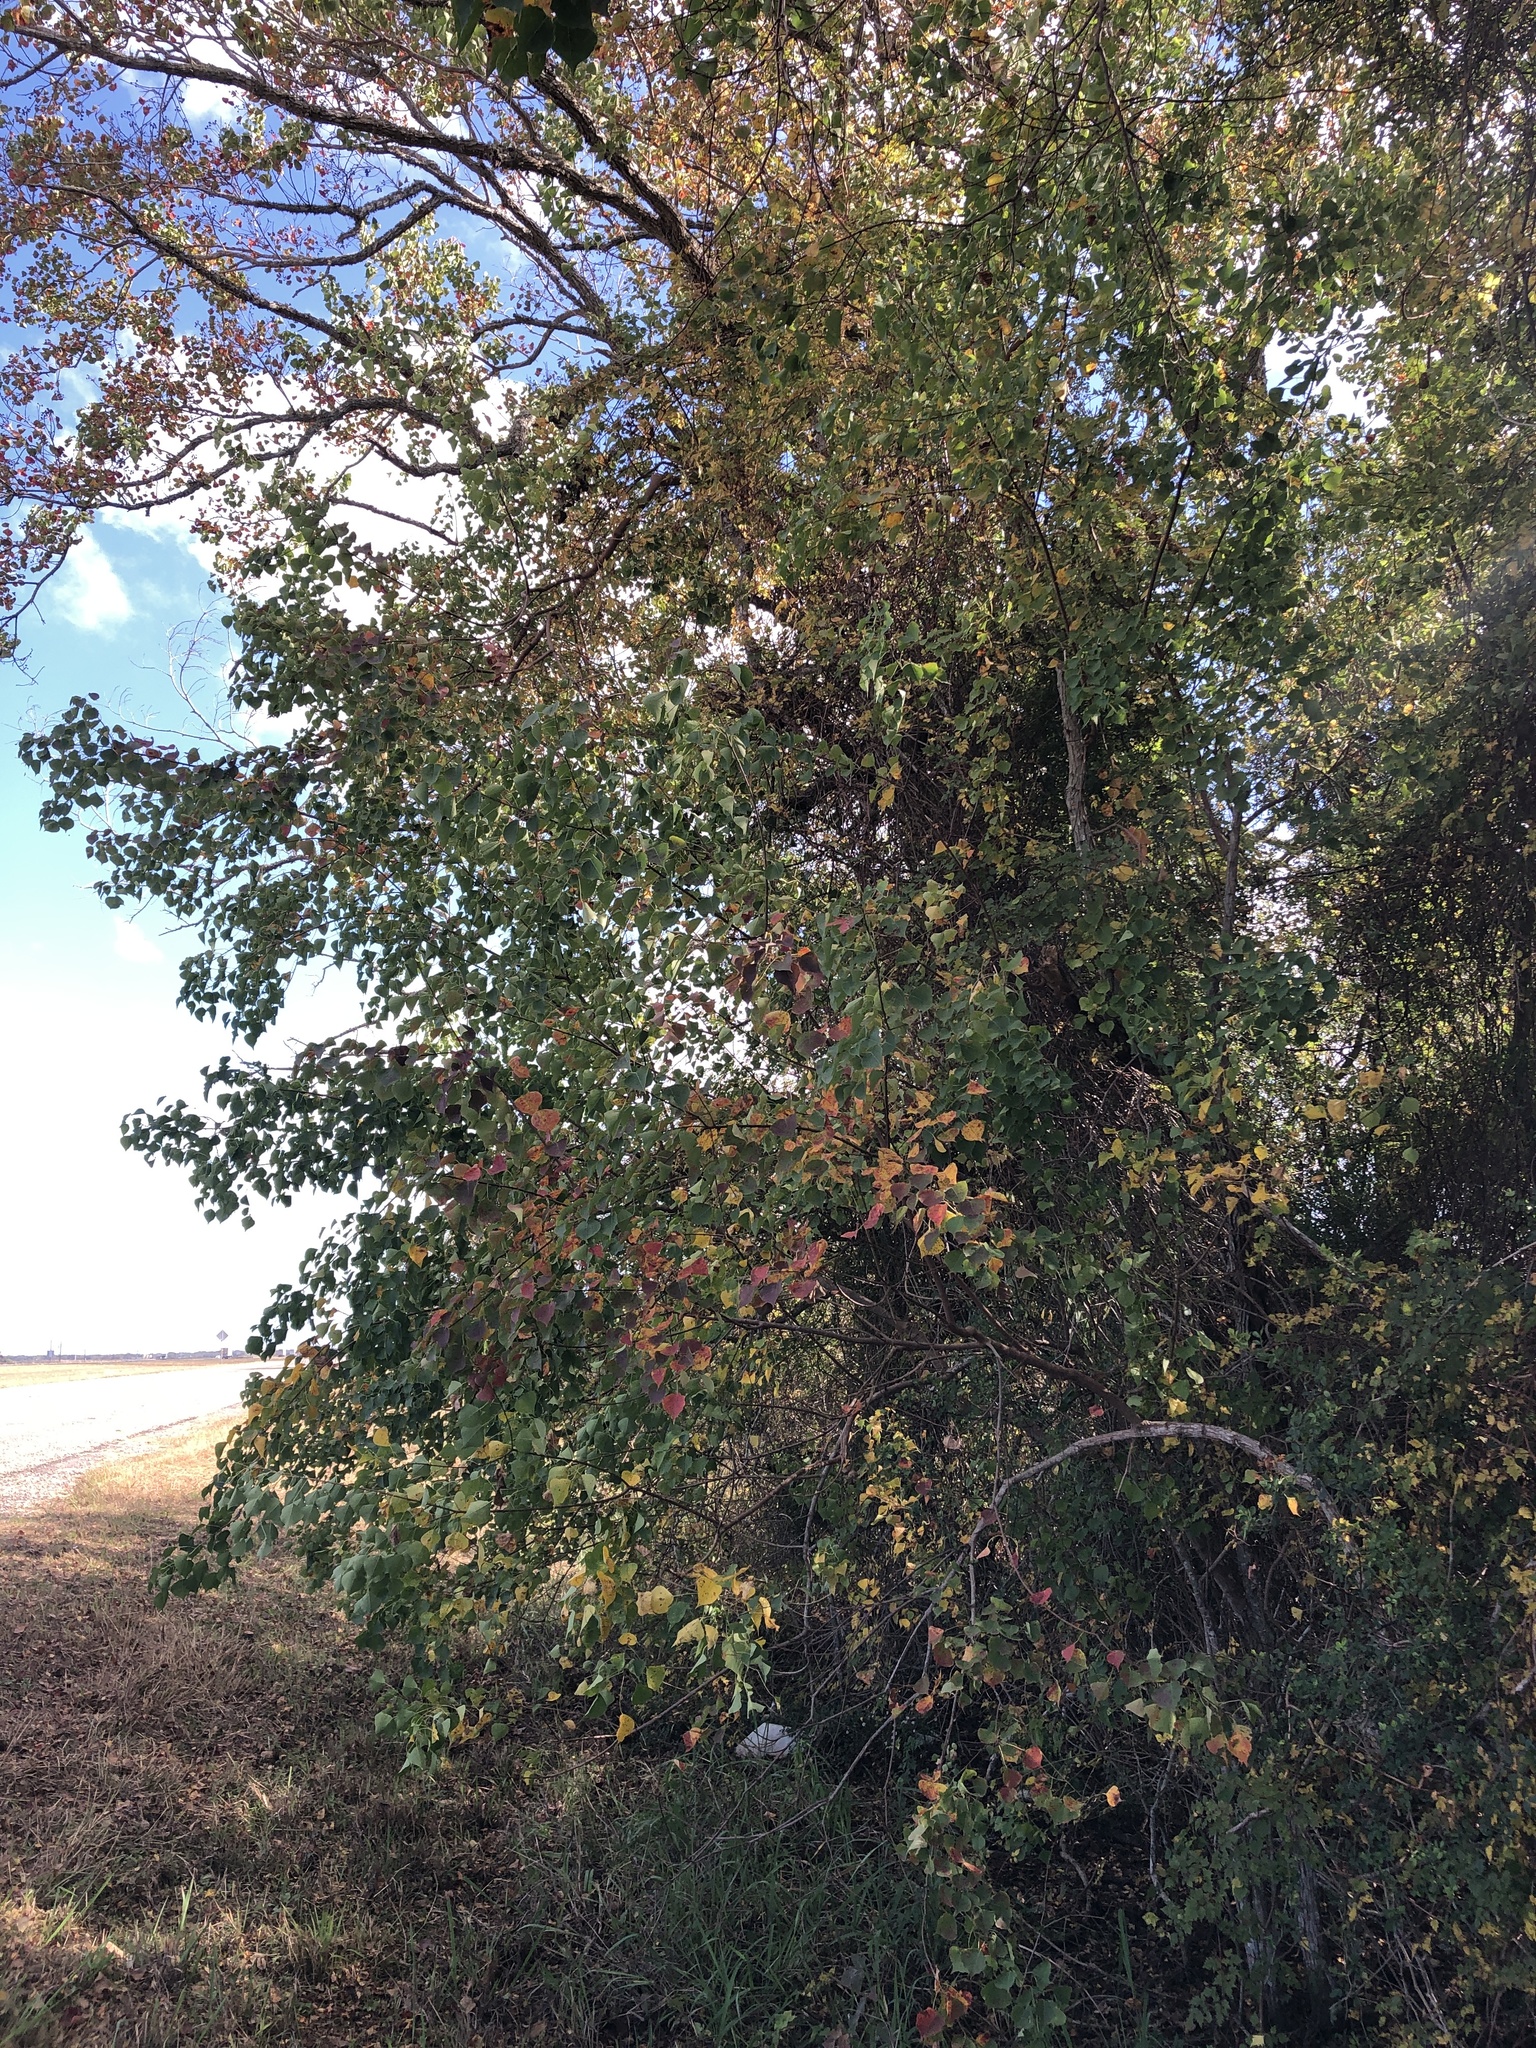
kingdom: Plantae
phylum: Tracheophyta
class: Magnoliopsida
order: Malpighiales
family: Euphorbiaceae
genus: Triadica
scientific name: Triadica sebifera
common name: Chinese tallow
